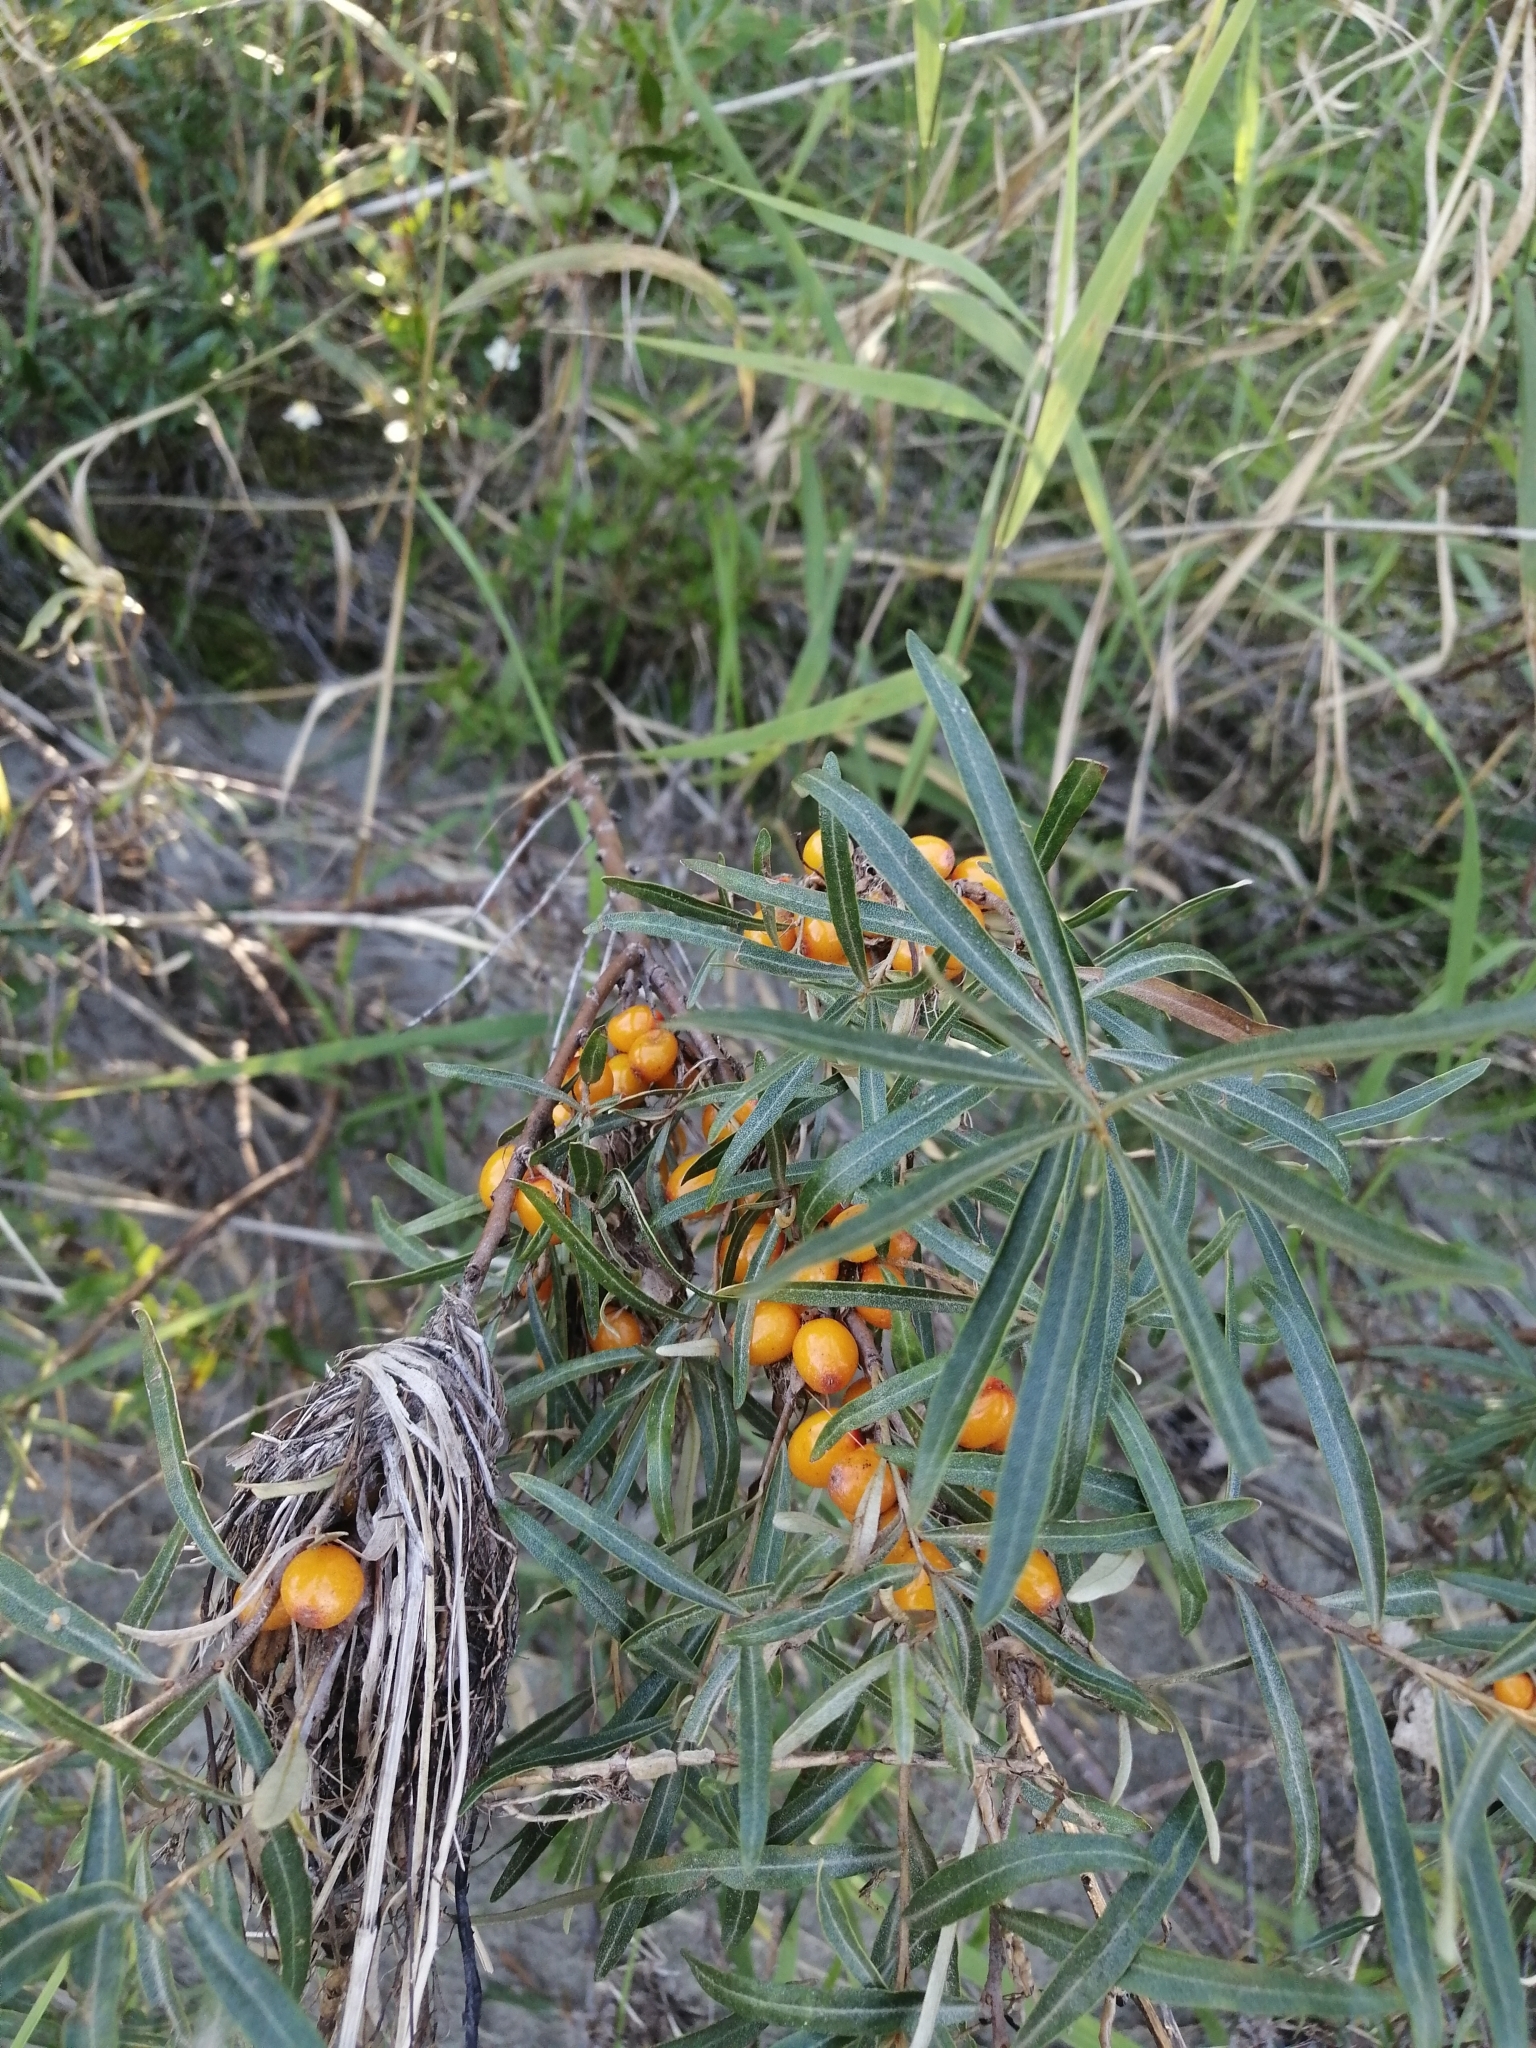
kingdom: Plantae
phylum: Tracheophyta
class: Magnoliopsida
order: Rosales
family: Elaeagnaceae
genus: Hippophae
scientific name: Hippophae rhamnoides
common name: Sea-buckthorn
